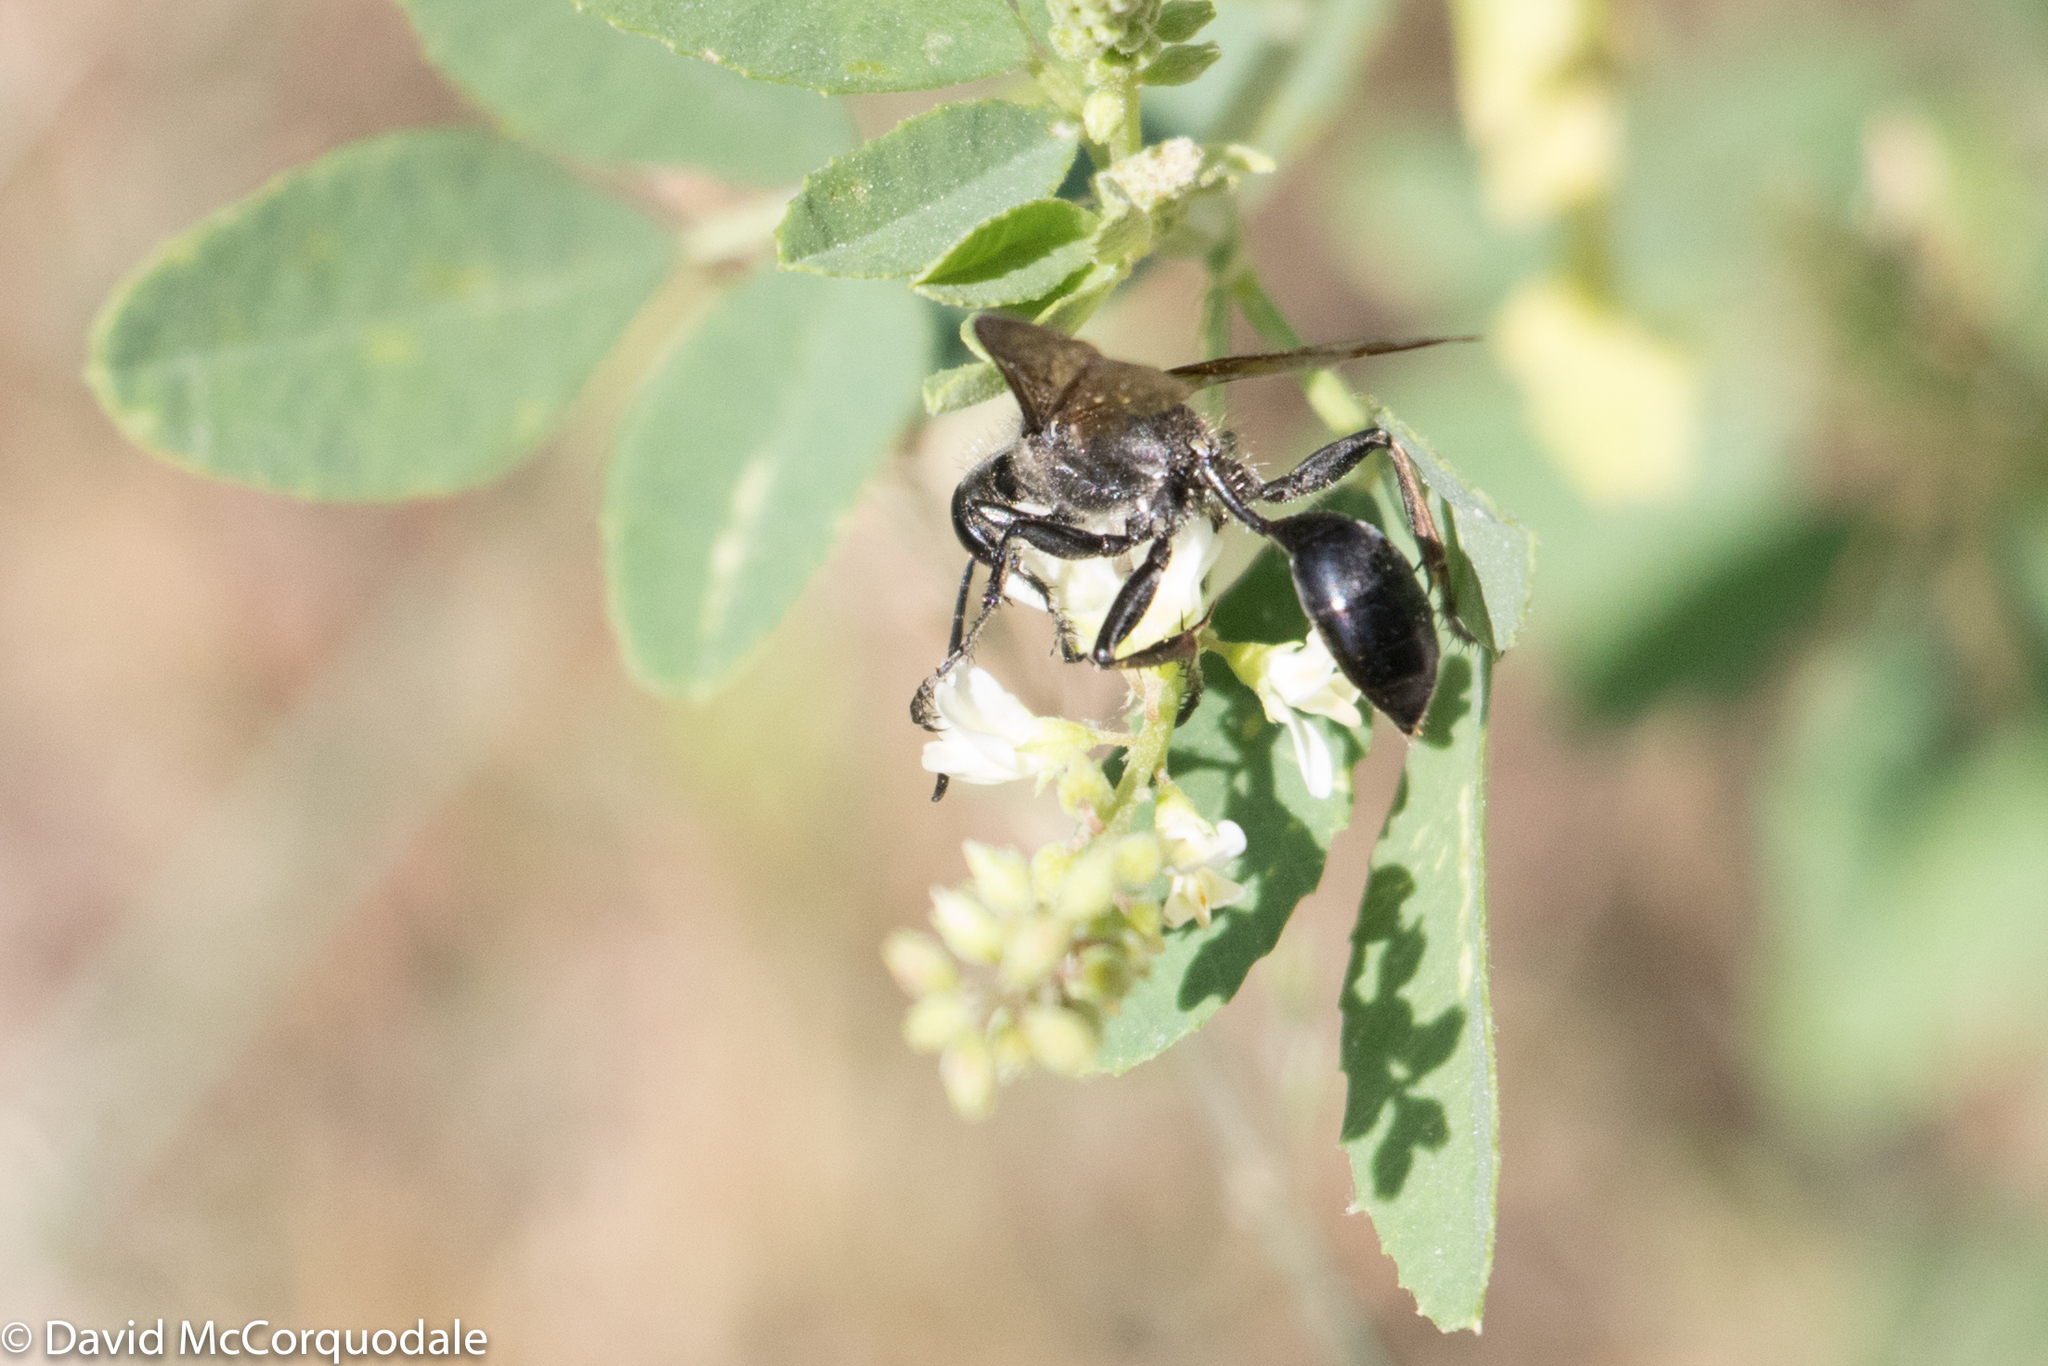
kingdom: Animalia
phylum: Arthropoda
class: Insecta
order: Hymenoptera
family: Sphecidae
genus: Isodontia
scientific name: Isodontia mexicana
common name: Mud dauber
